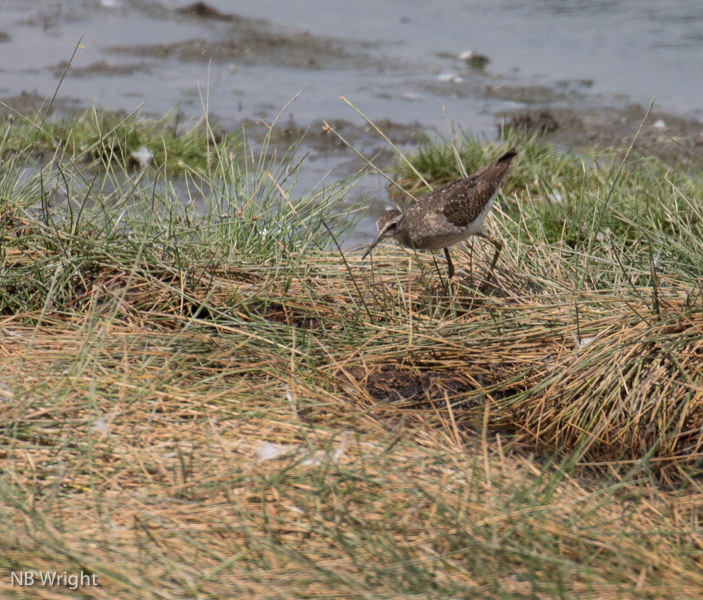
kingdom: Animalia
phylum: Chordata
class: Aves
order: Charadriiformes
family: Scolopacidae
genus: Tringa
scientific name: Tringa glareola
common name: Wood sandpiper
